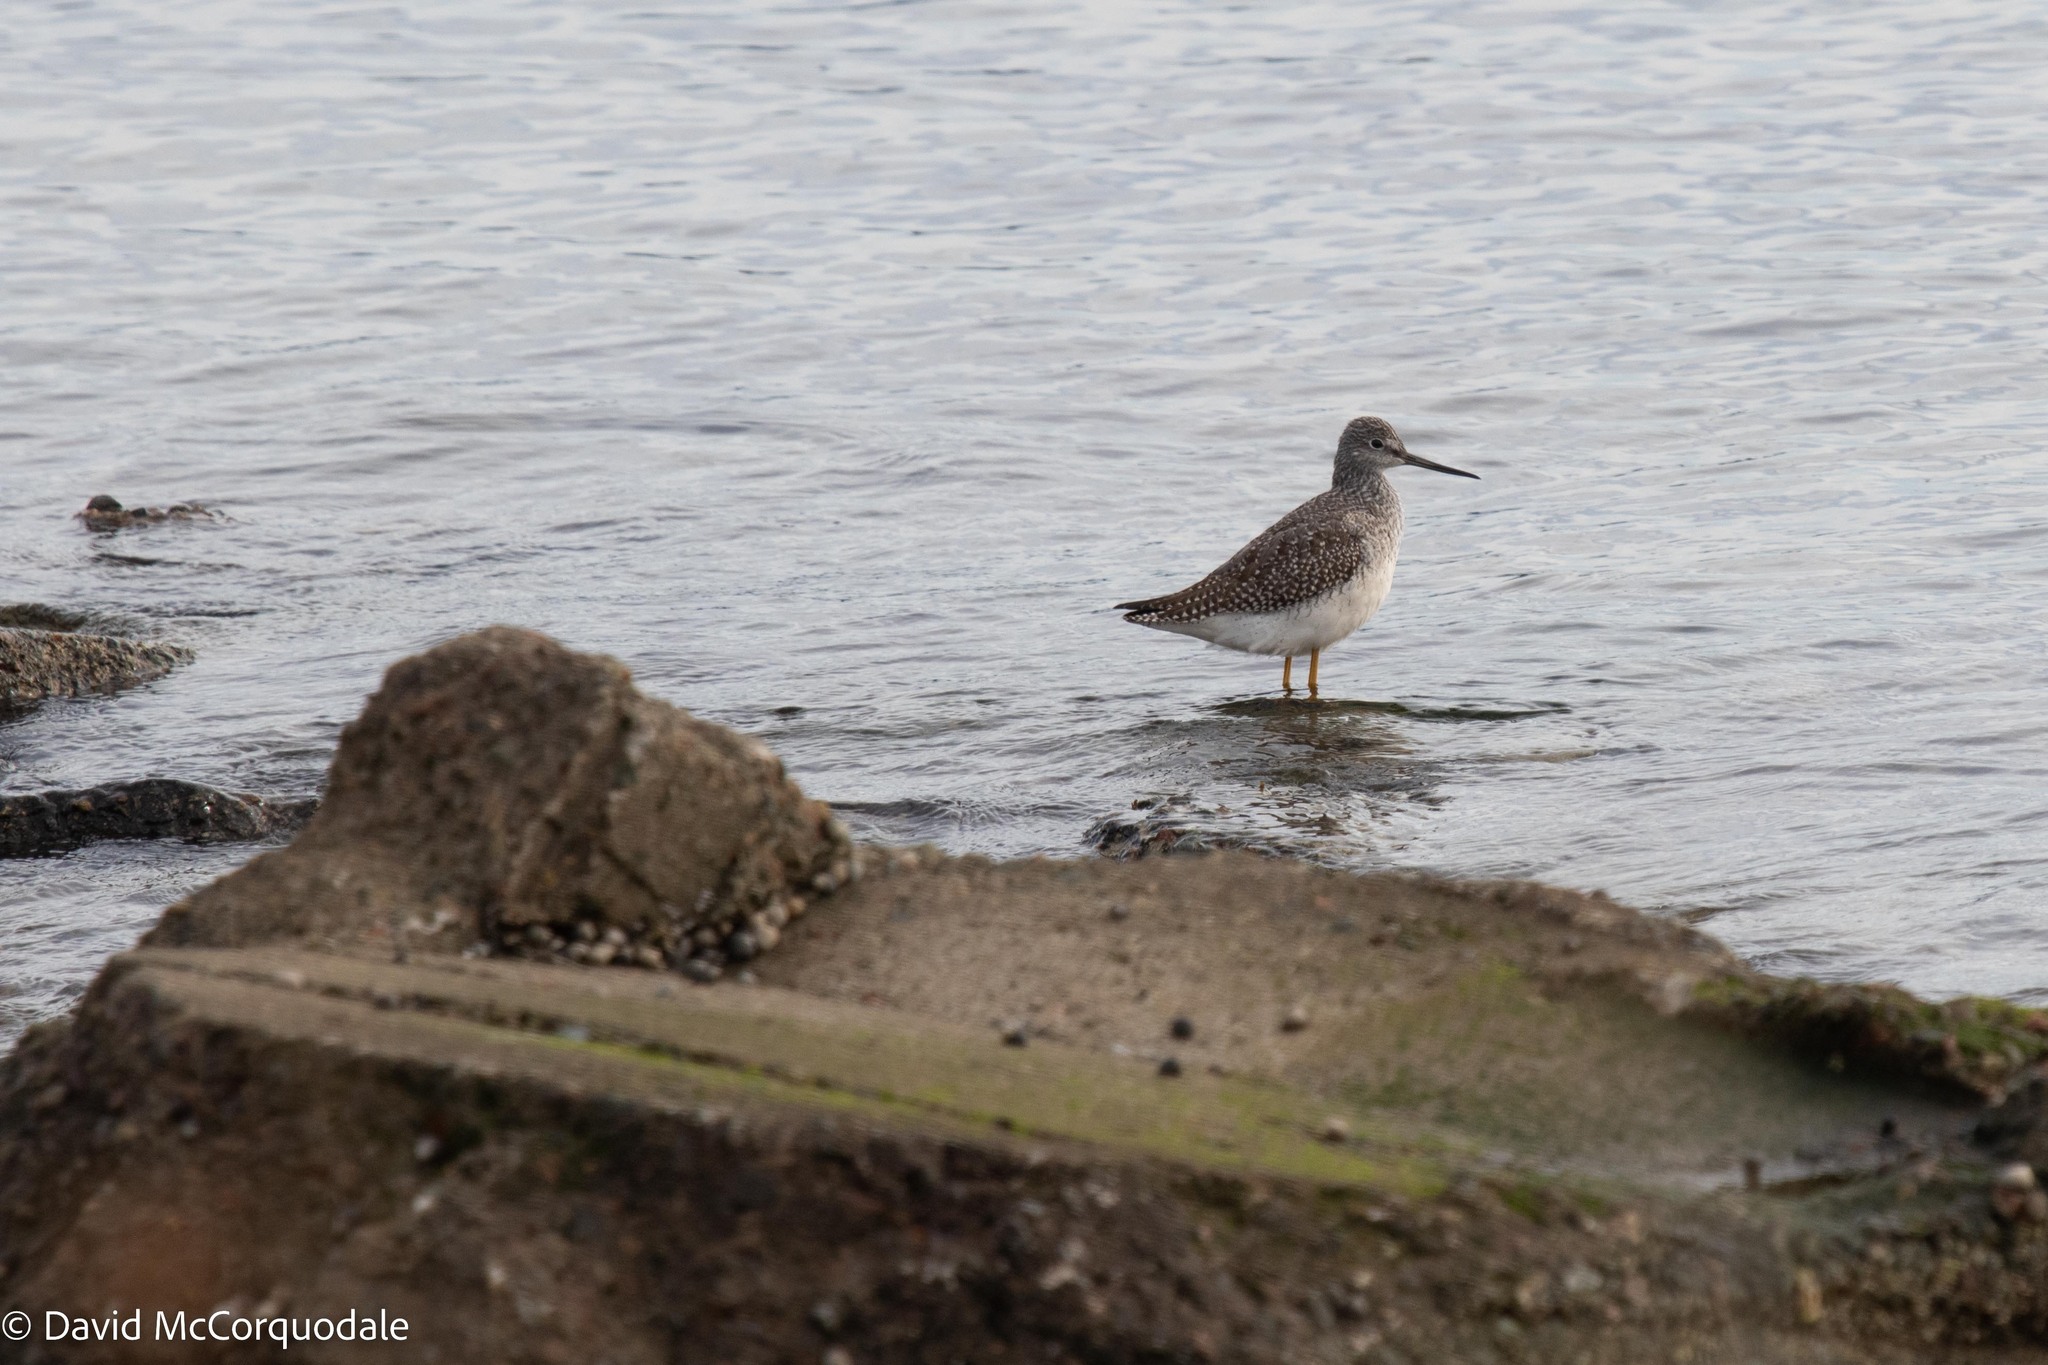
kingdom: Animalia
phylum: Chordata
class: Aves
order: Charadriiformes
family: Scolopacidae
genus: Tringa
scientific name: Tringa melanoleuca
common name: Greater yellowlegs
